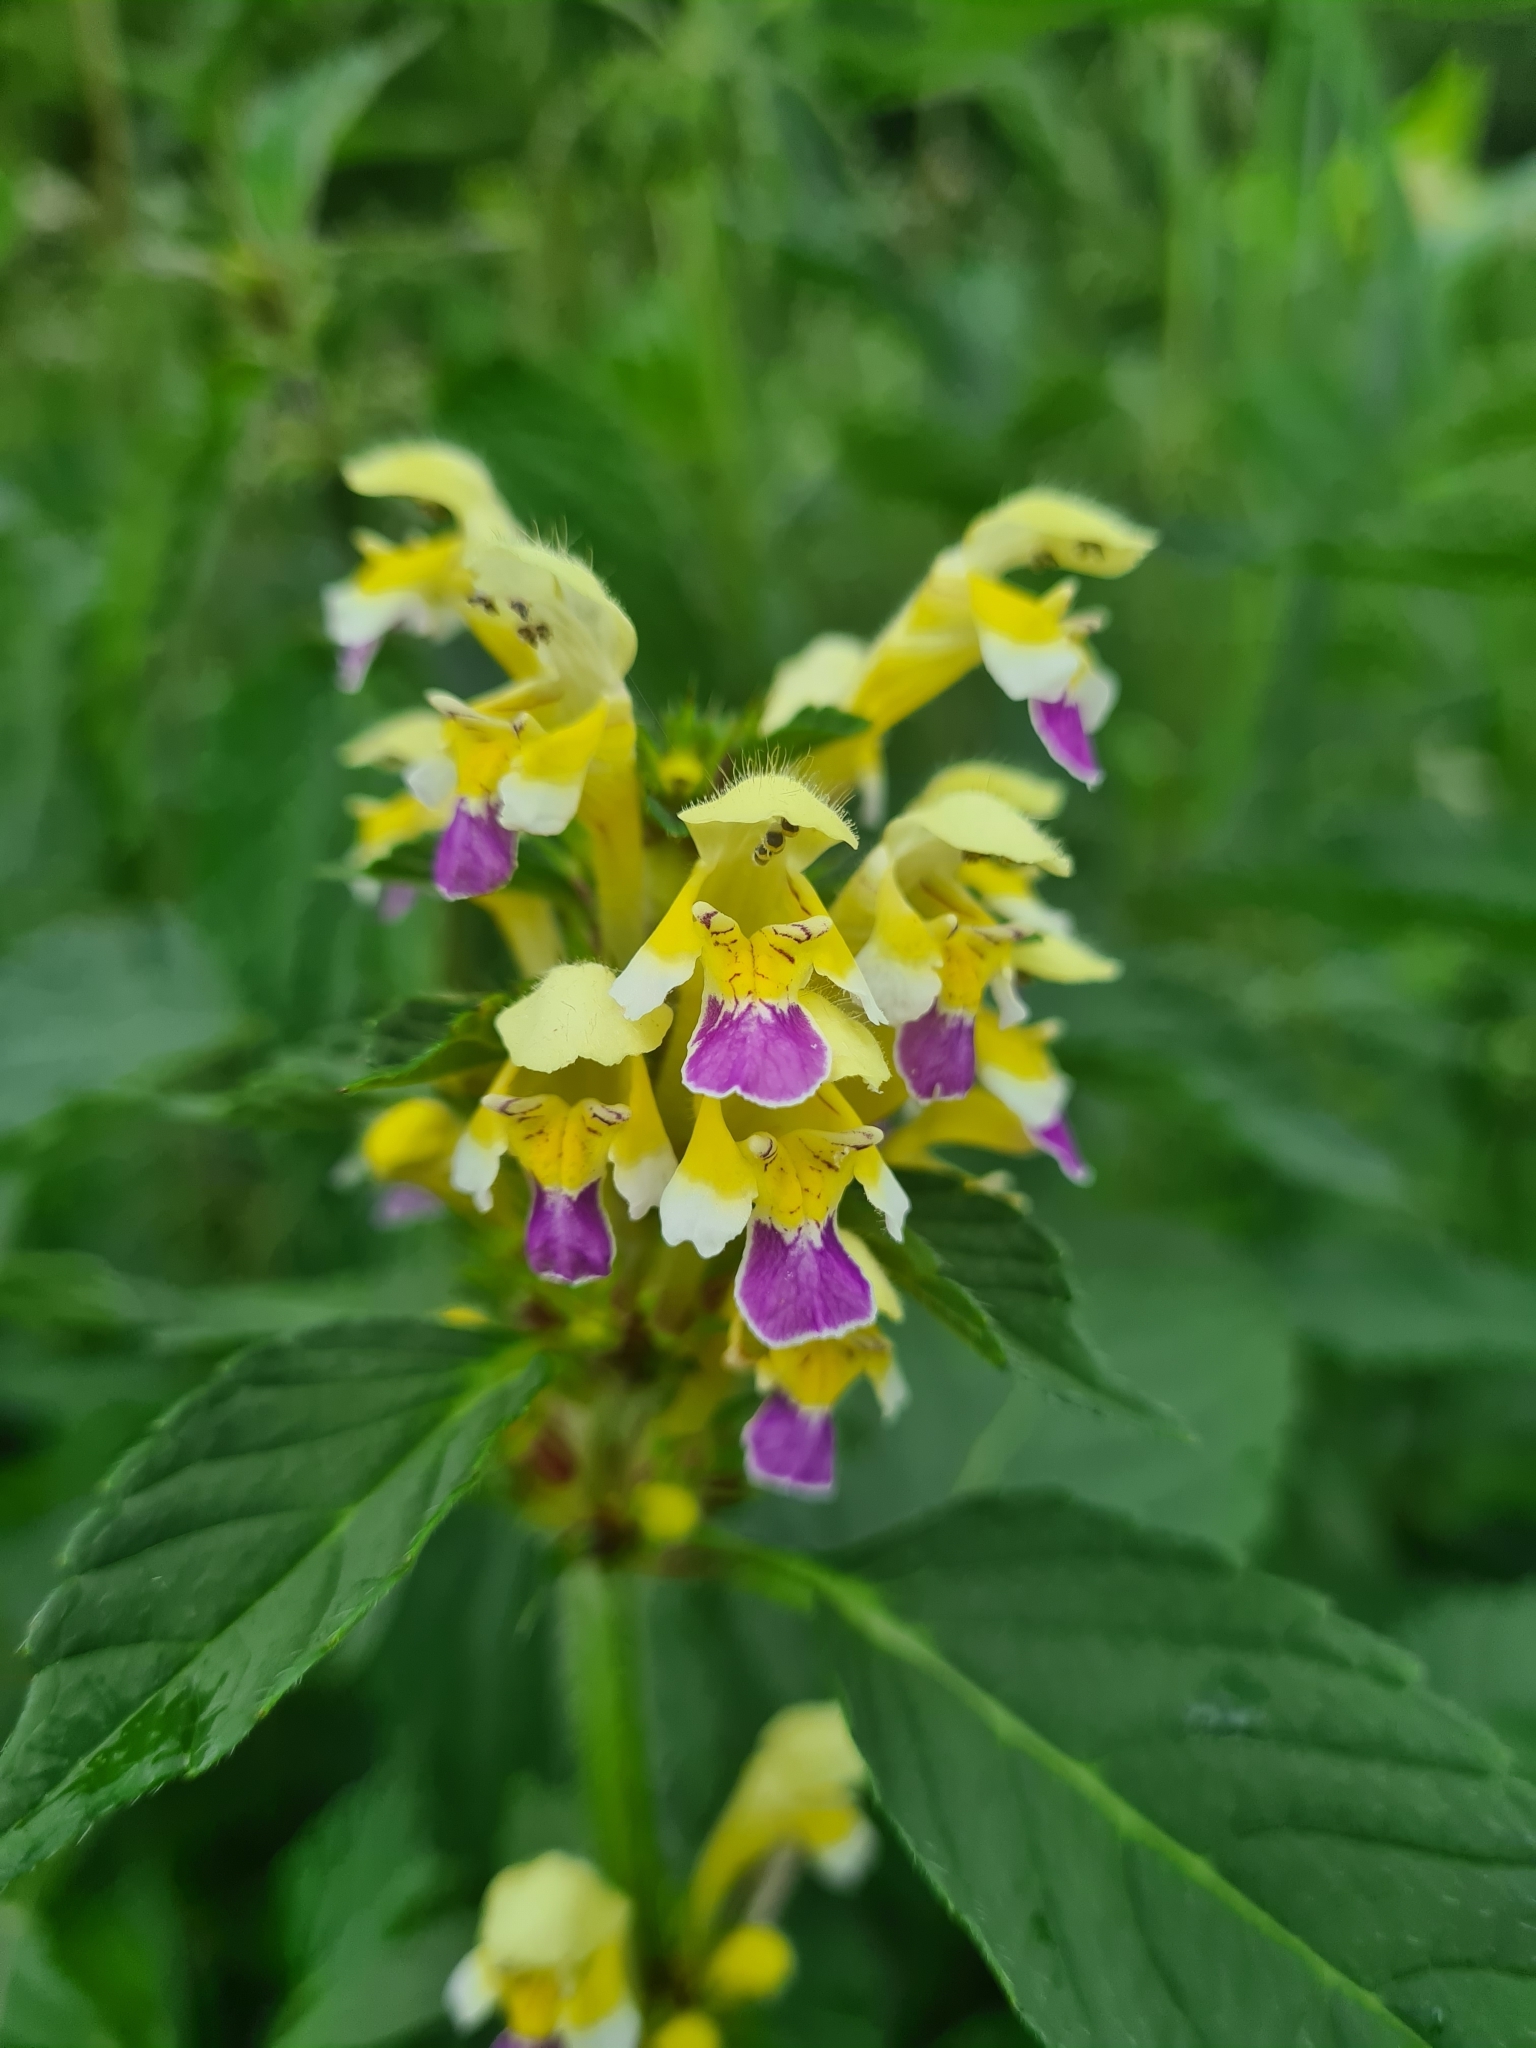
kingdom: Plantae
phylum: Tracheophyta
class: Magnoliopsida
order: Lamiales
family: Lamiaceae
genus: Galeopsis
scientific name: Galeopsis speciosa
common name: Large-flowered hemp-nettle
